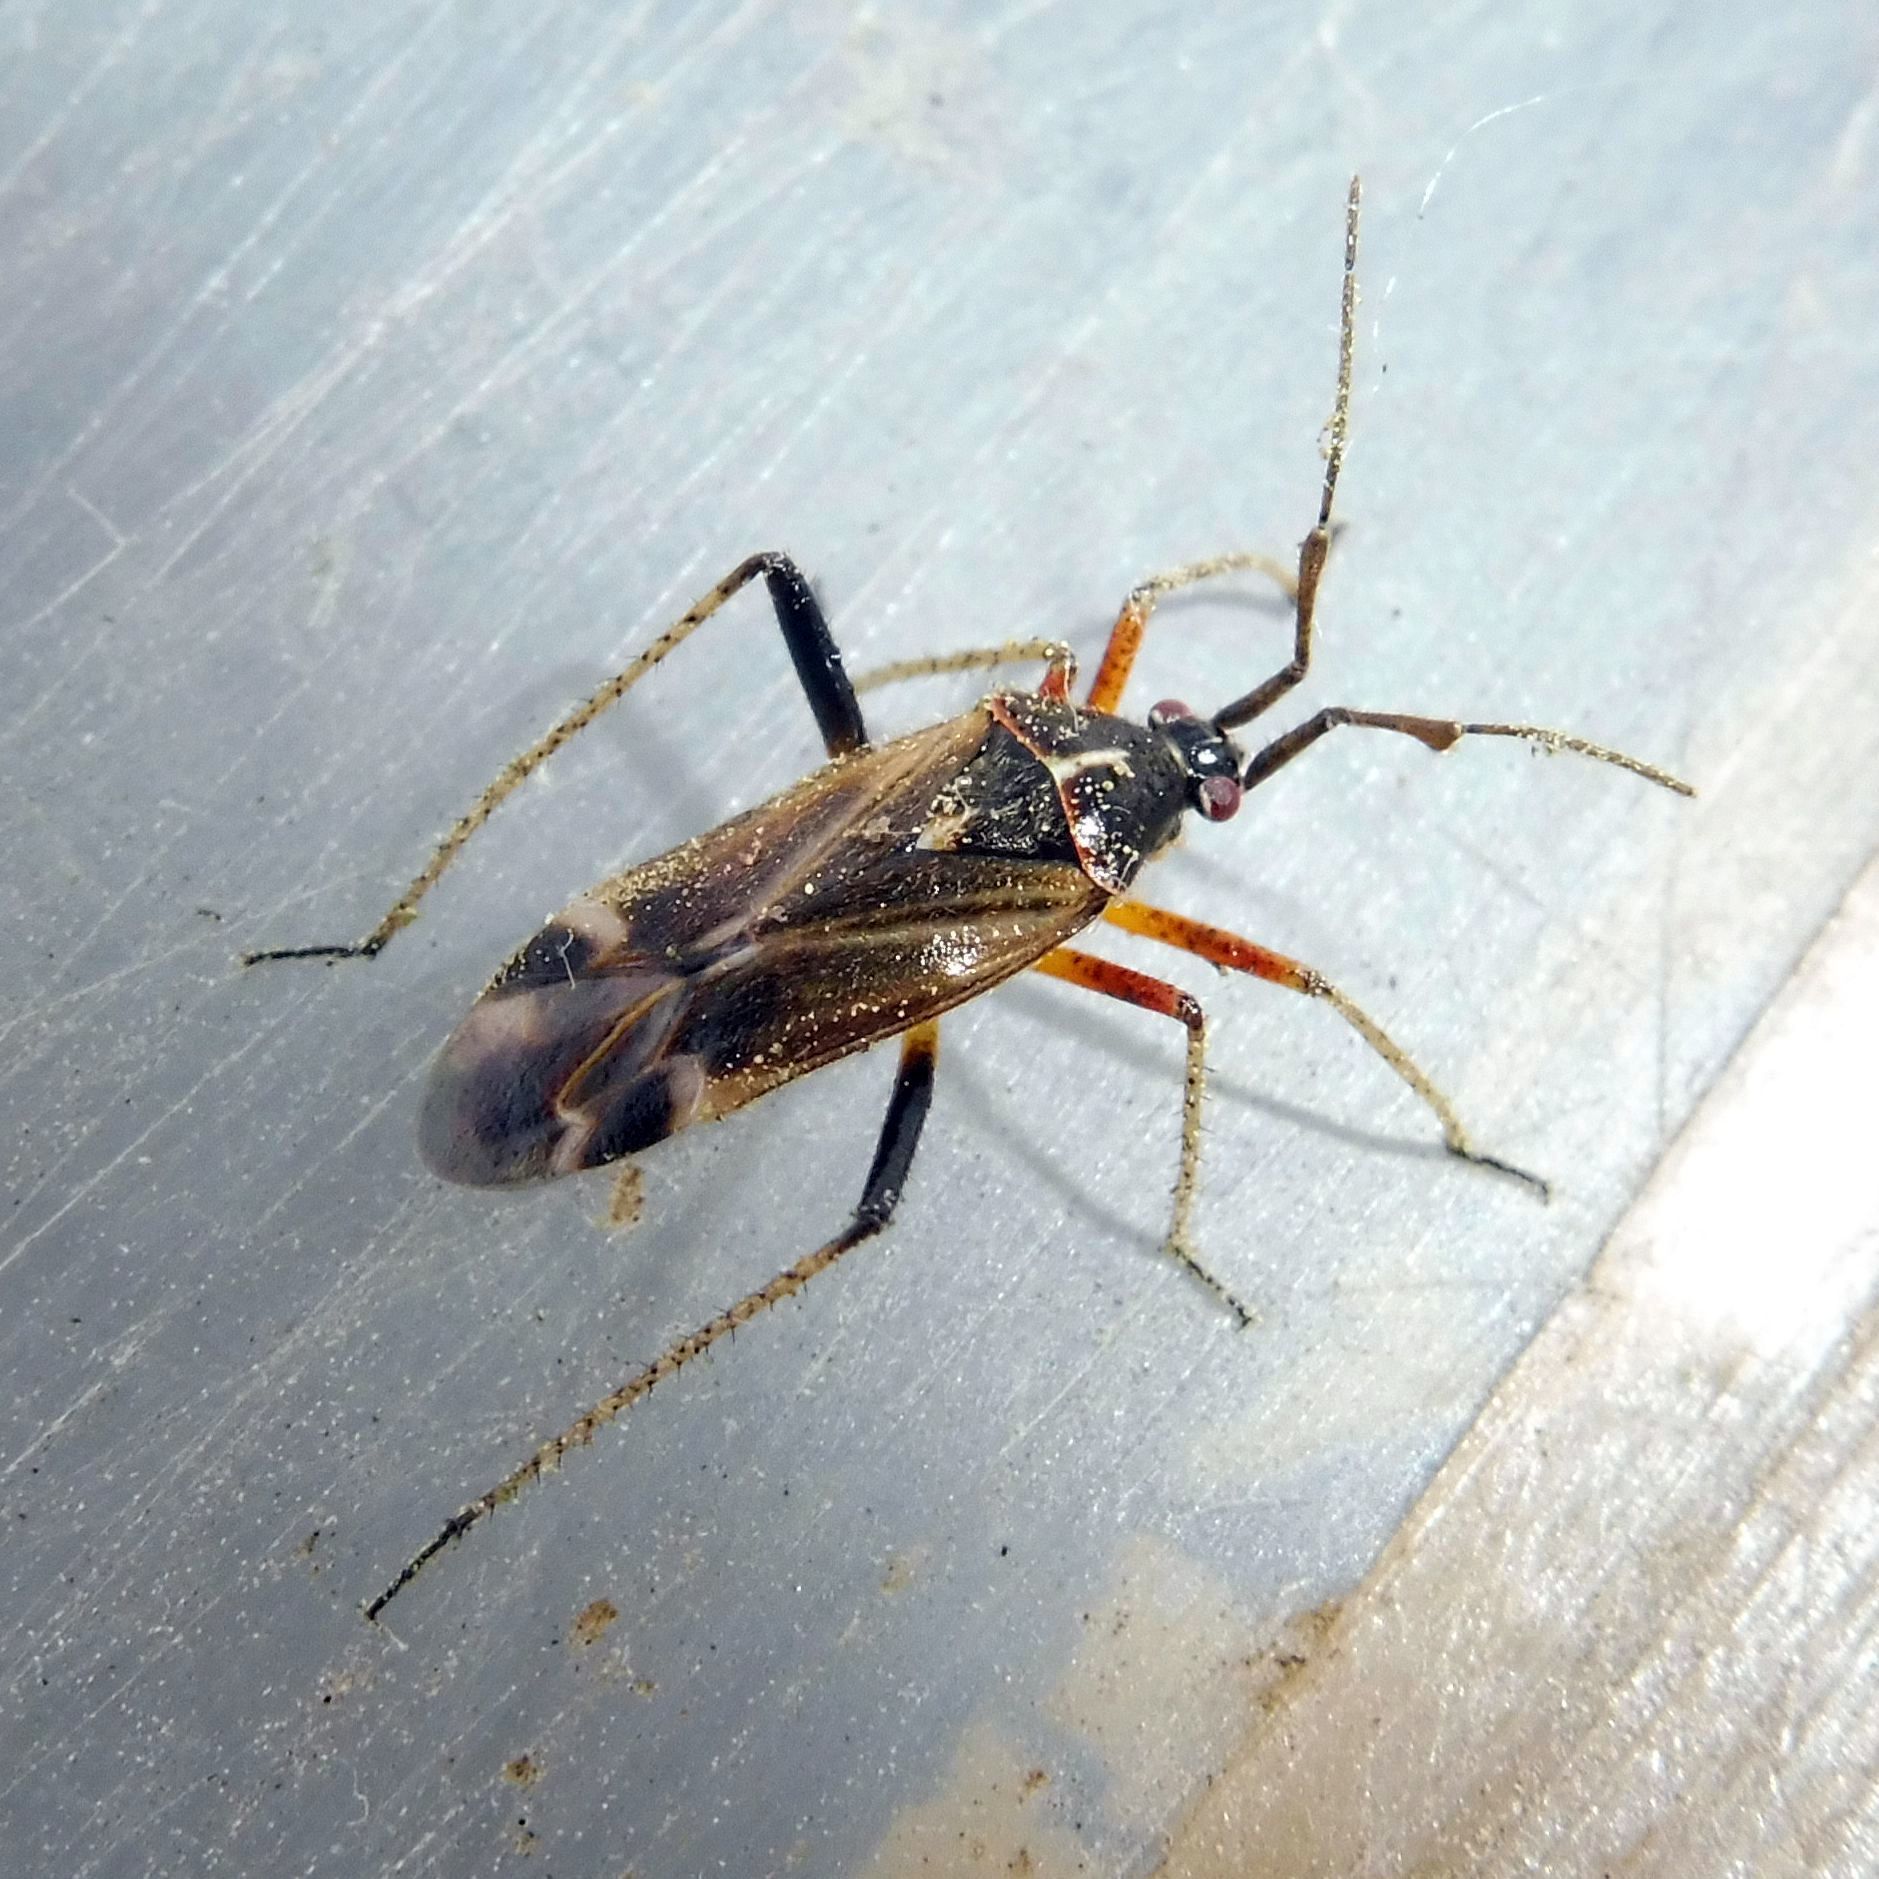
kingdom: Animalia
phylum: Arthropoda
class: Insecta
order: Hemiptera
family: Miridae
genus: Harpocera
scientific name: Harpocera thoracica
